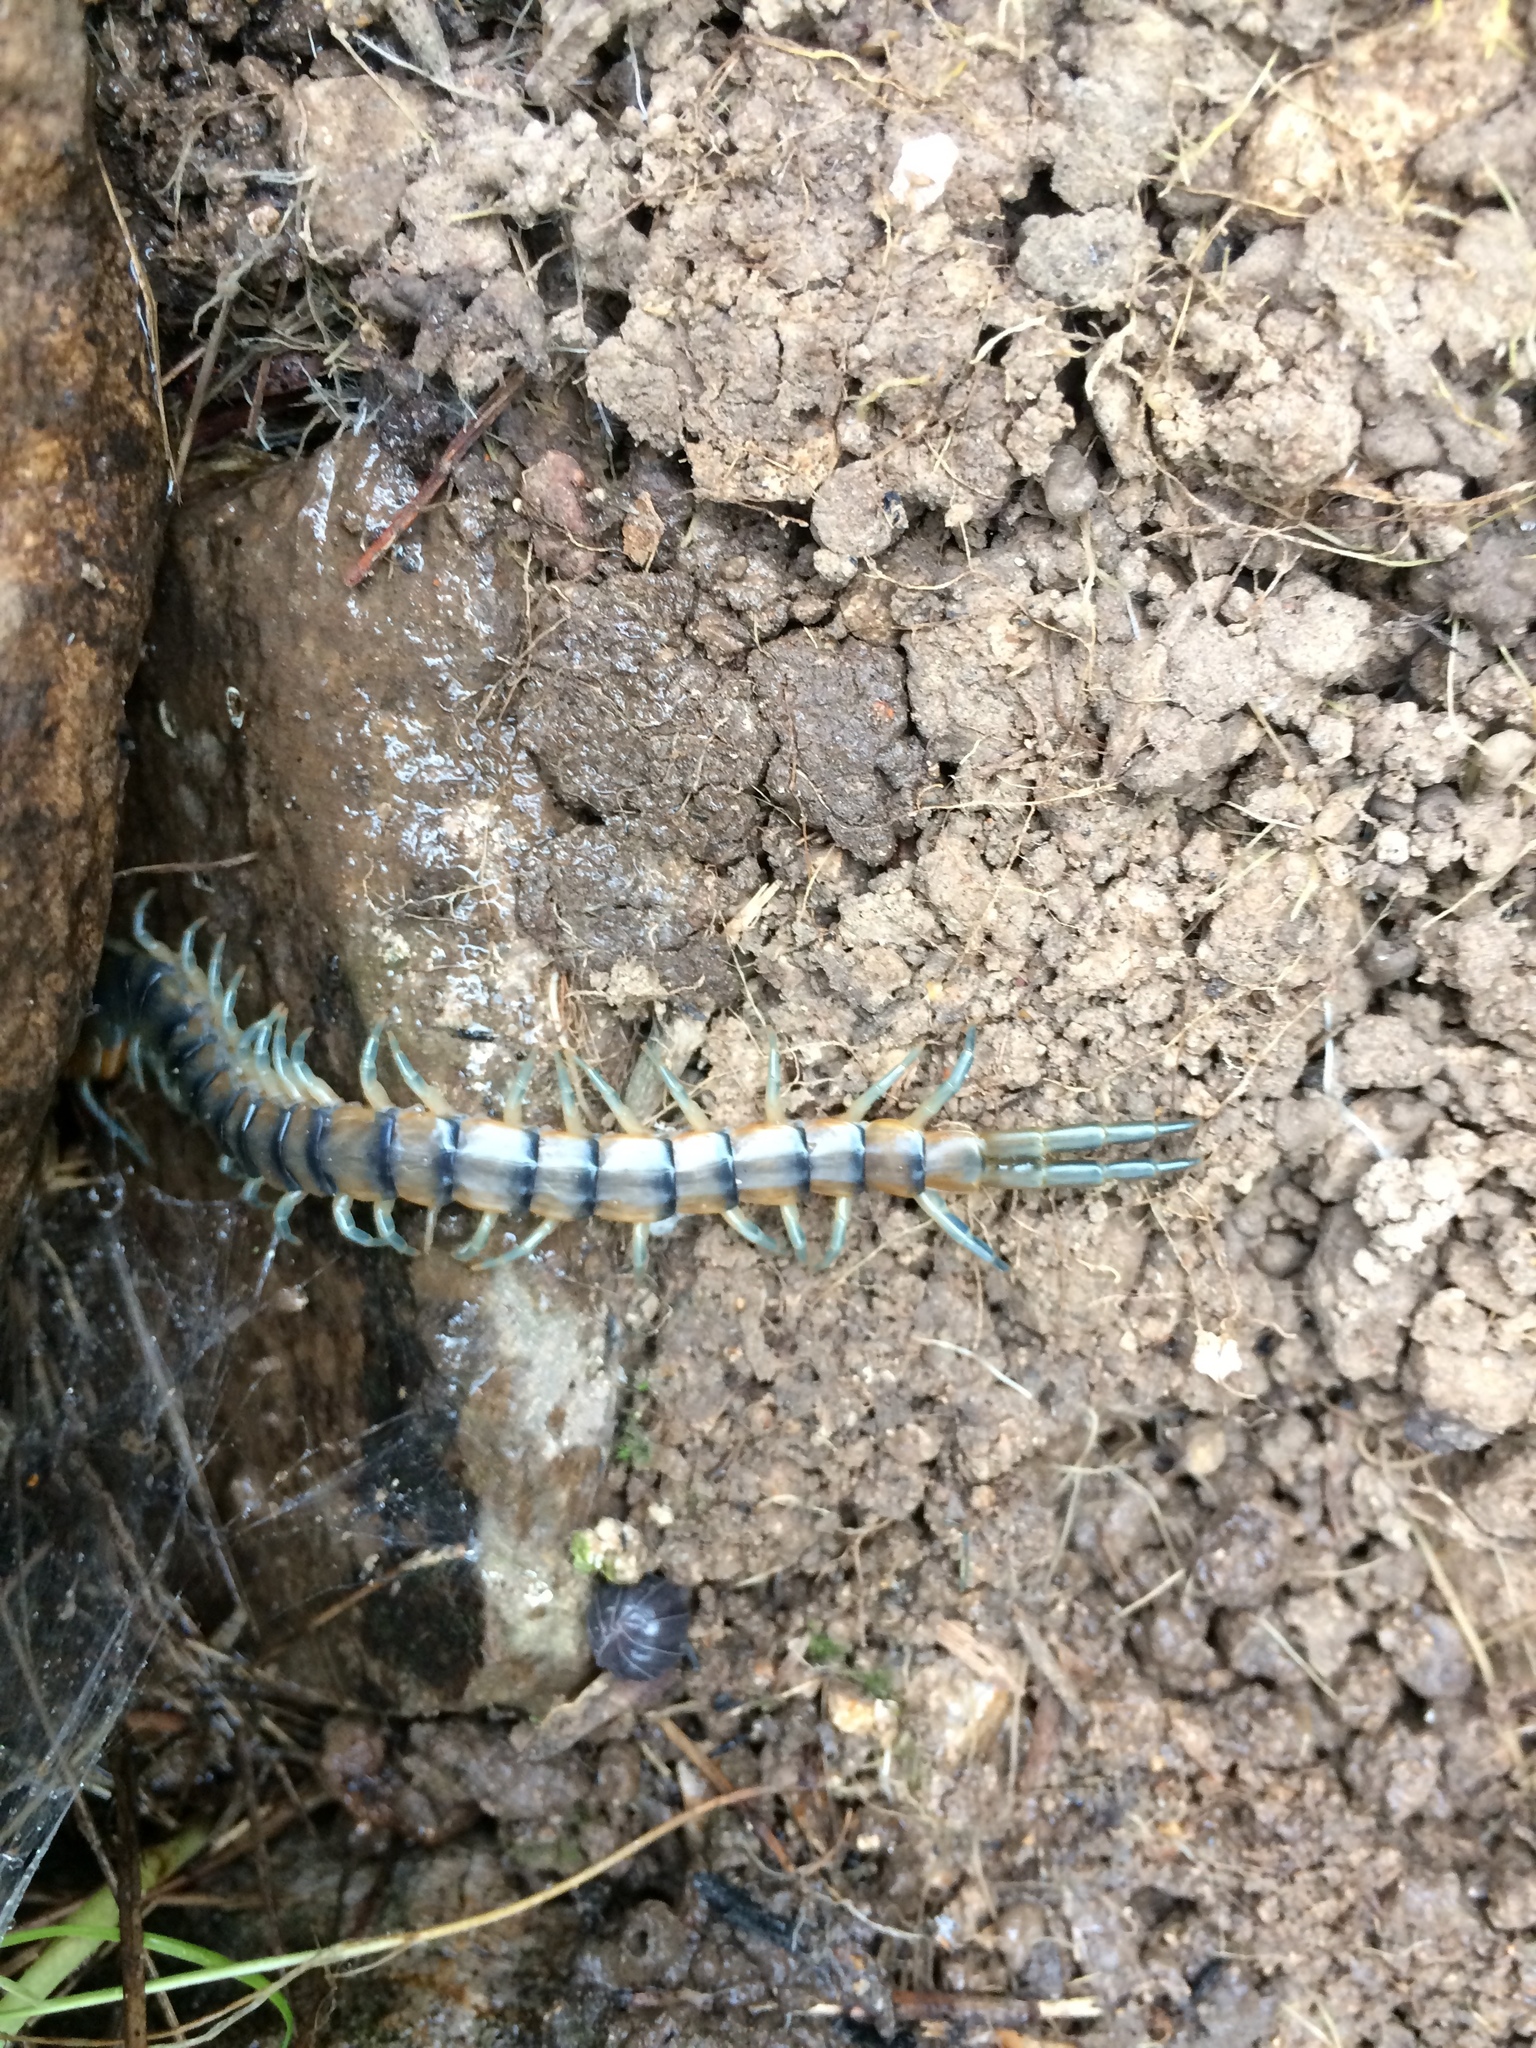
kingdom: Animalia
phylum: Arthropoda
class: Chilopoda
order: Scolopendromorpha
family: Scolopendridae
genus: Scolopendra
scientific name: Scolopendra polymorpha
